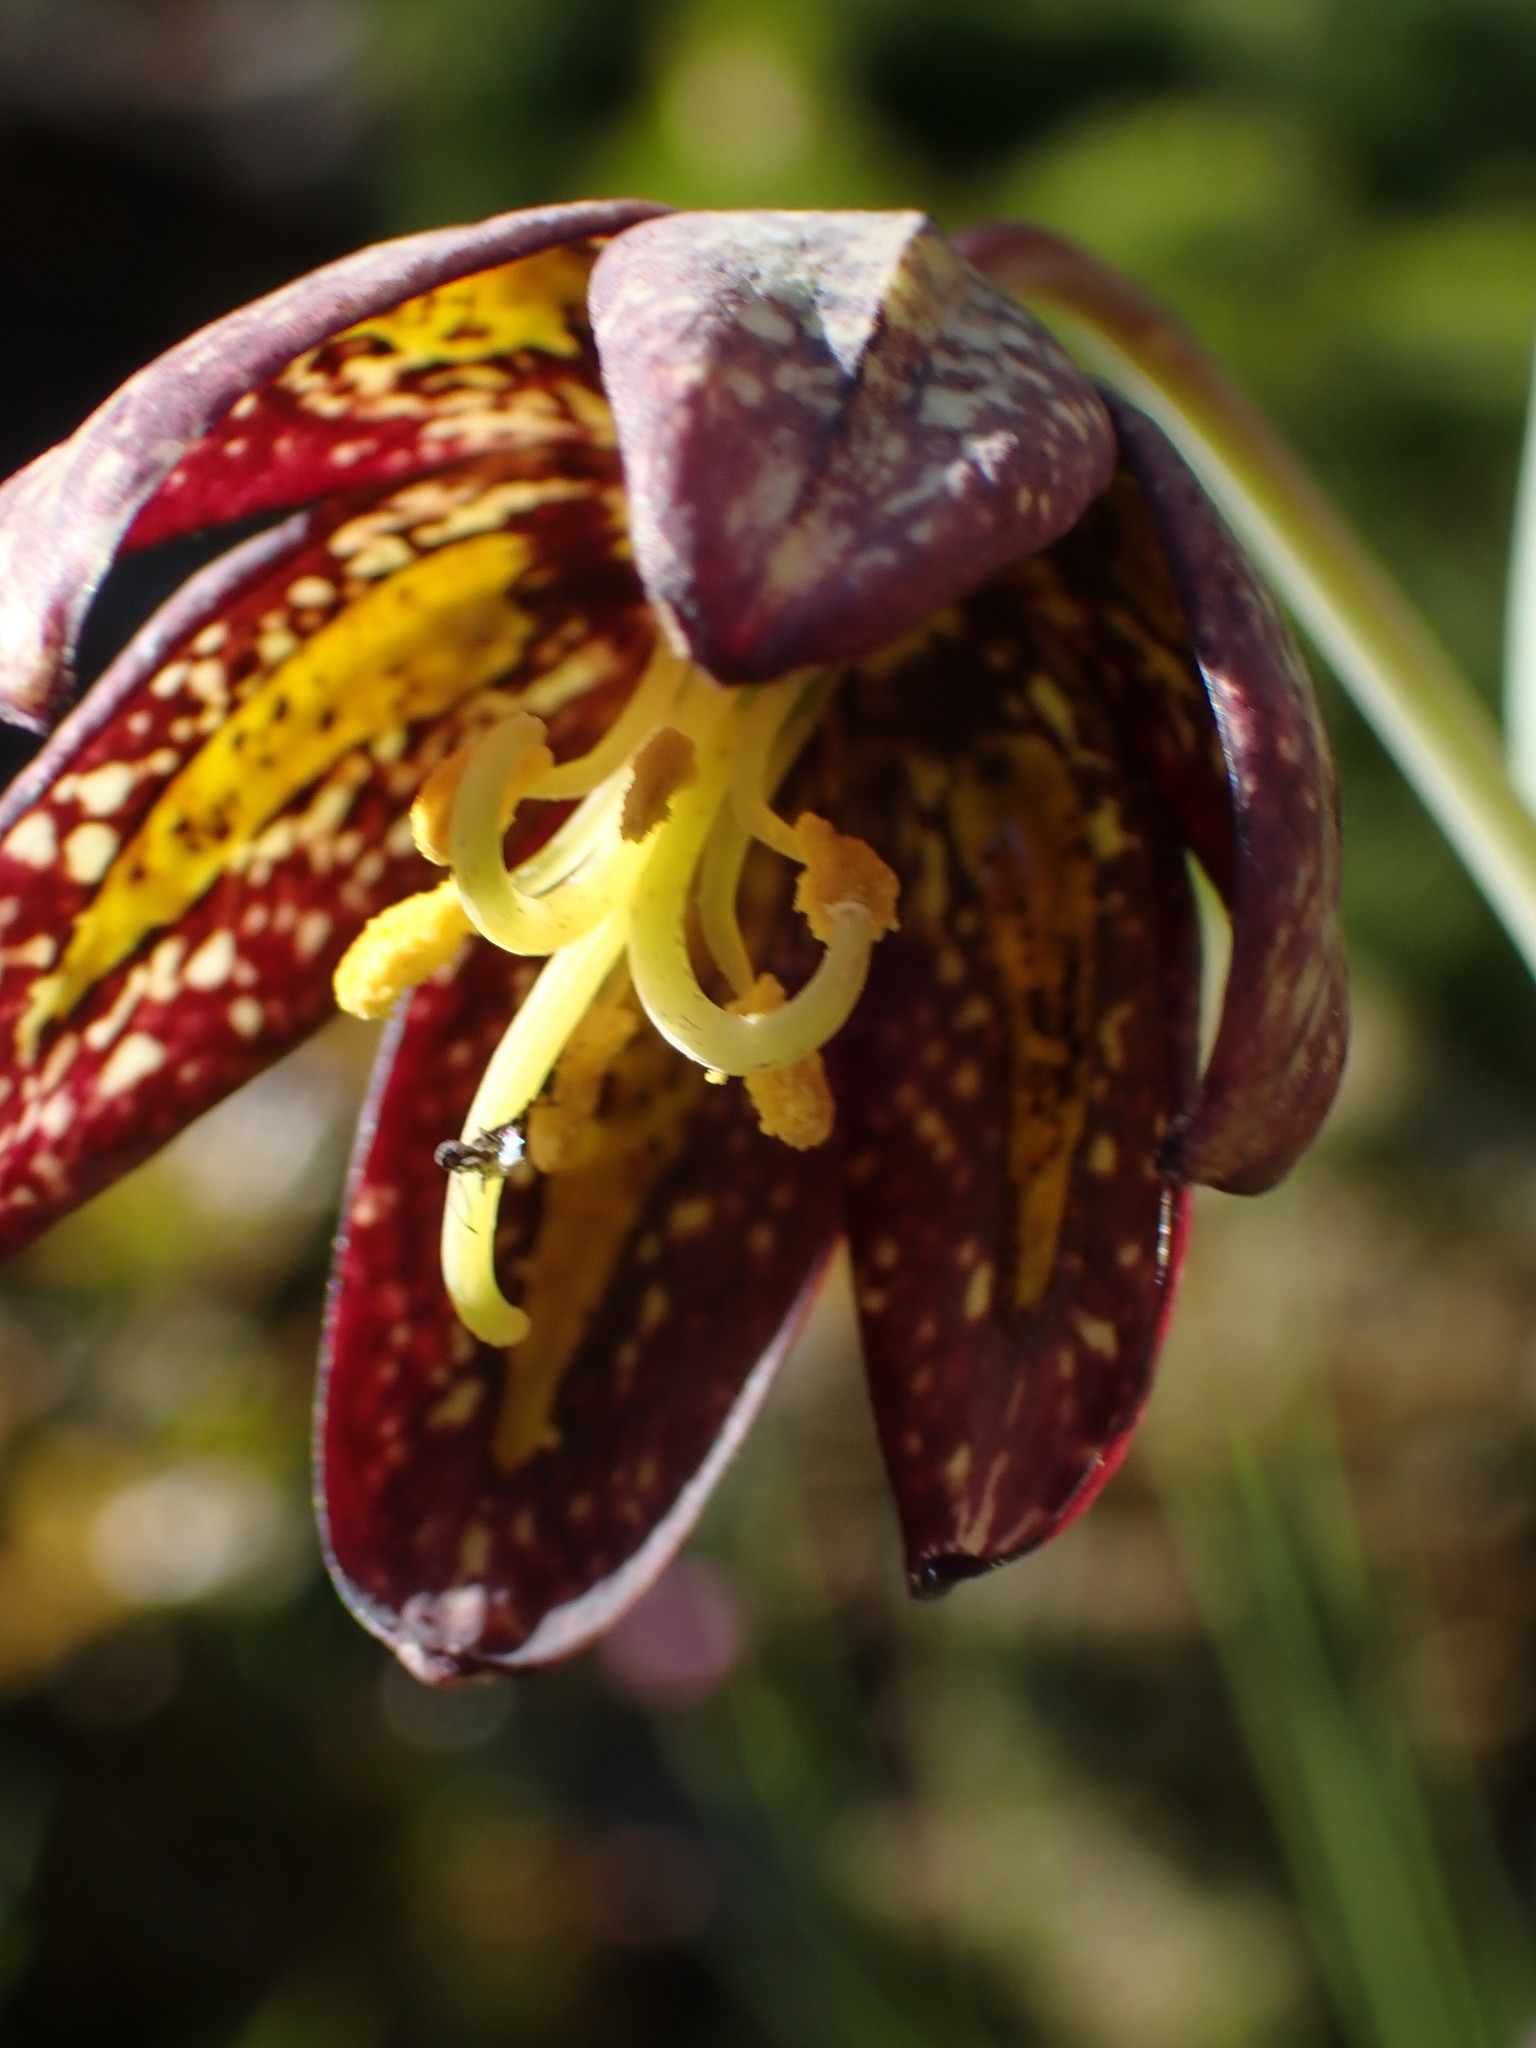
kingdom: Plantae
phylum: Tracheophyta
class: Liliopsida
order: Liliales
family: Liliaceae
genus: Fritillaria
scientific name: Fritillaria affinis
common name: Ojai fritillary
